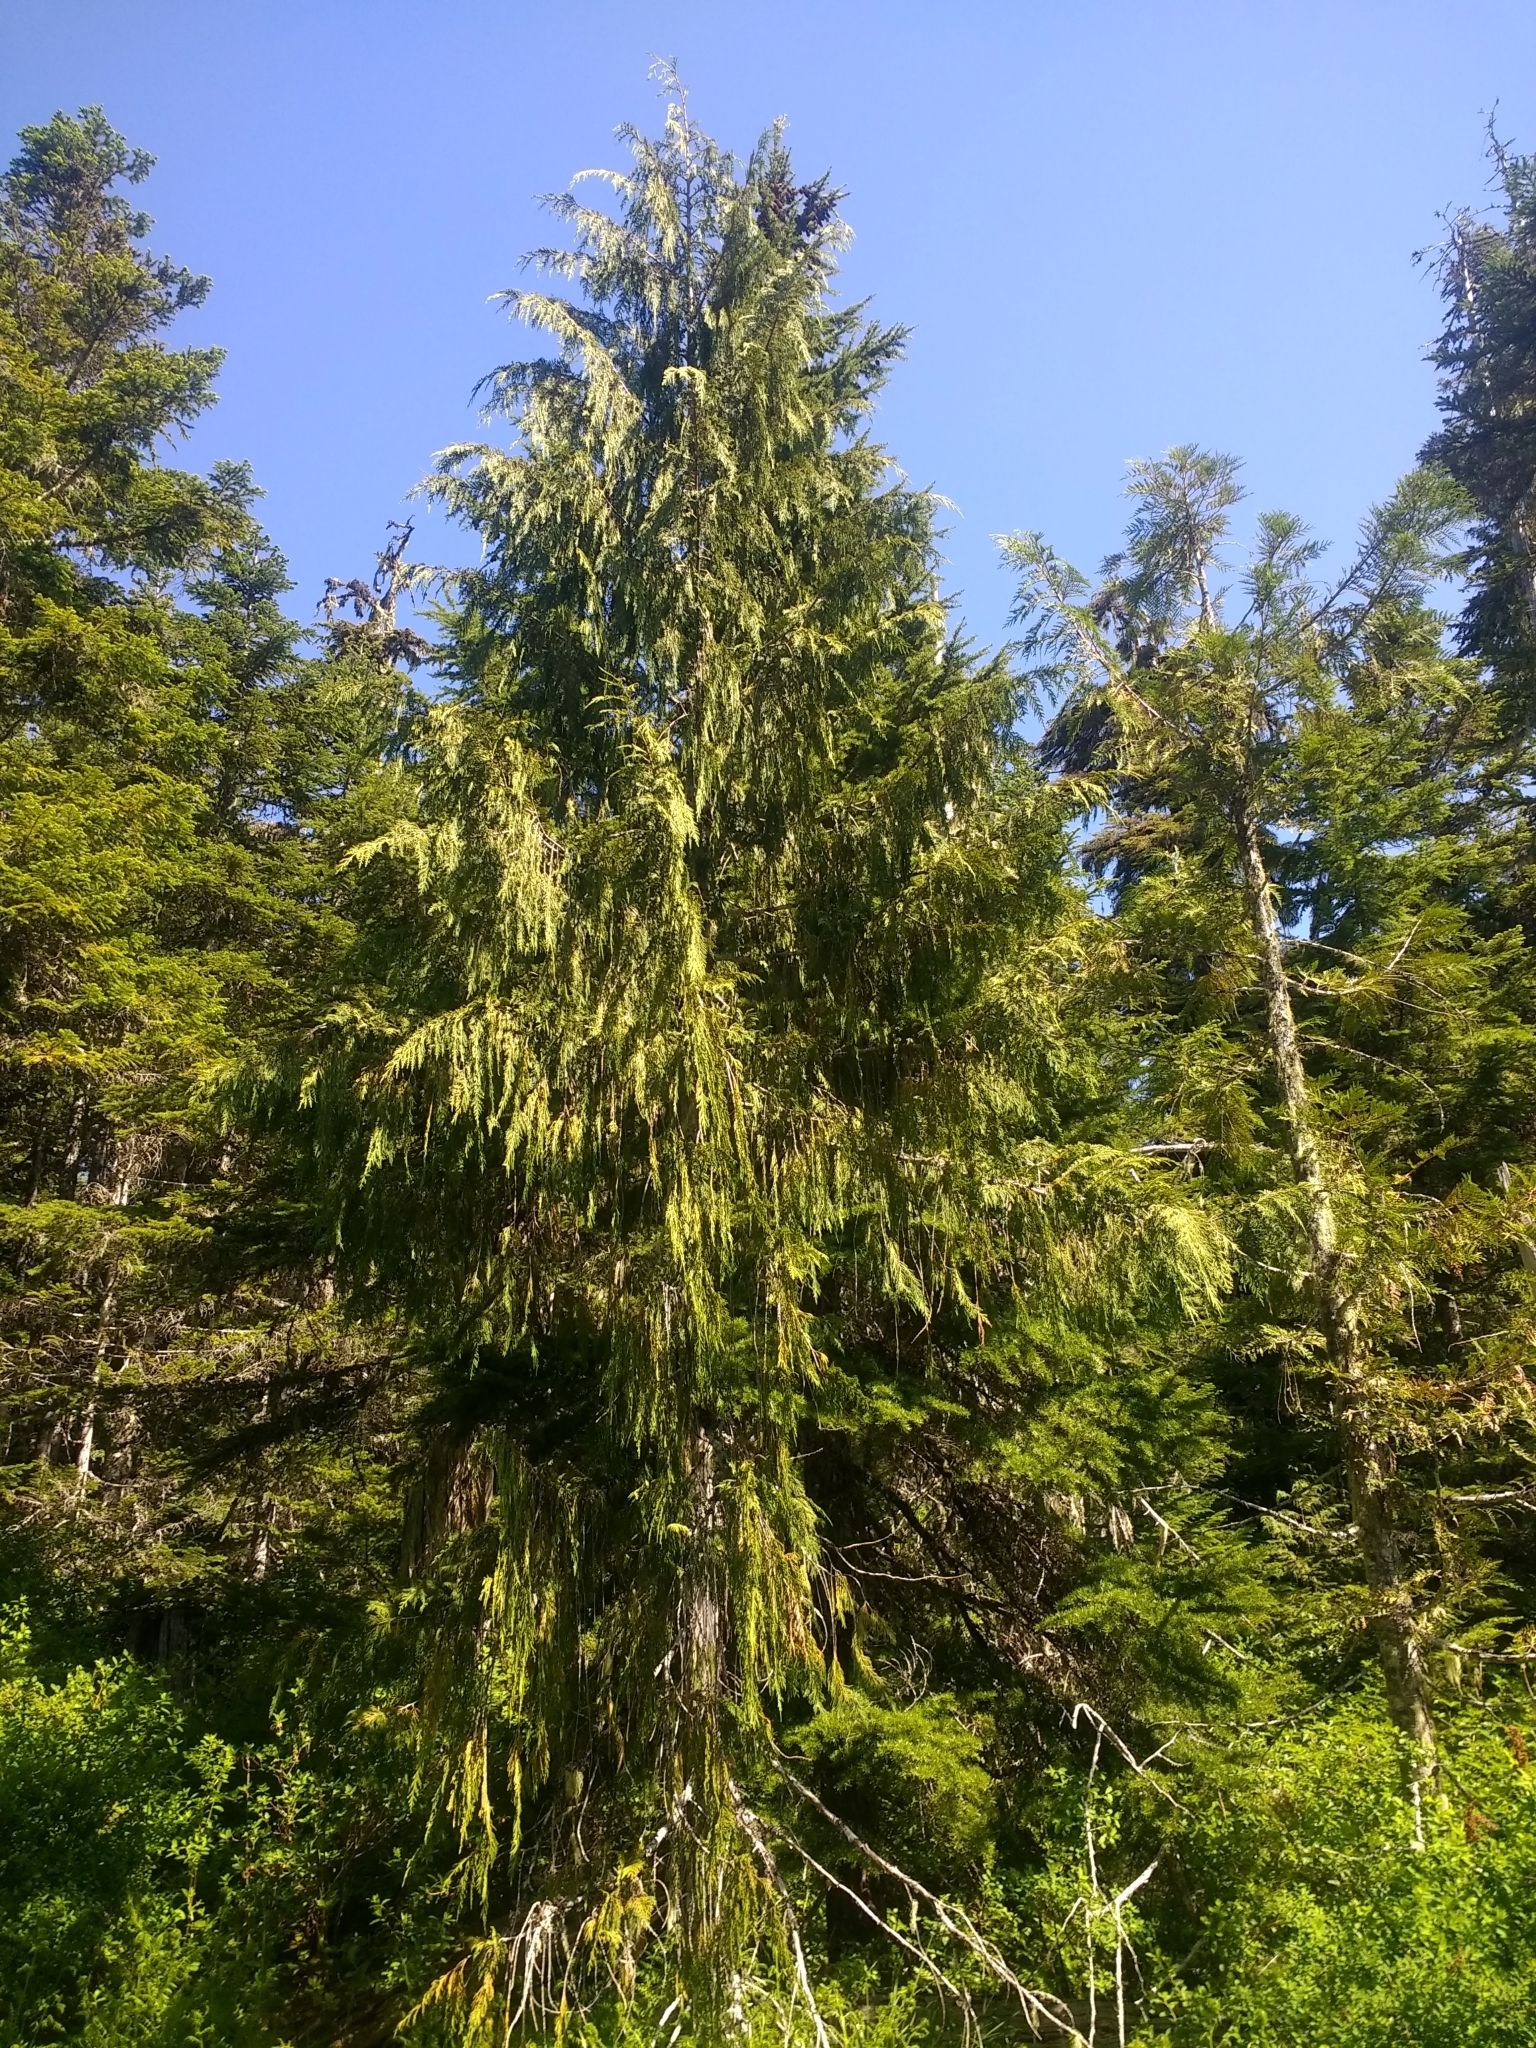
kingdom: Plantae
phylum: Tracheophyta
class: Pinopsida
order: Pinales
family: Cupressaceae
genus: Xanthocyparis
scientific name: Xanthocyparis nootkatensis
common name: Nootka cypress
